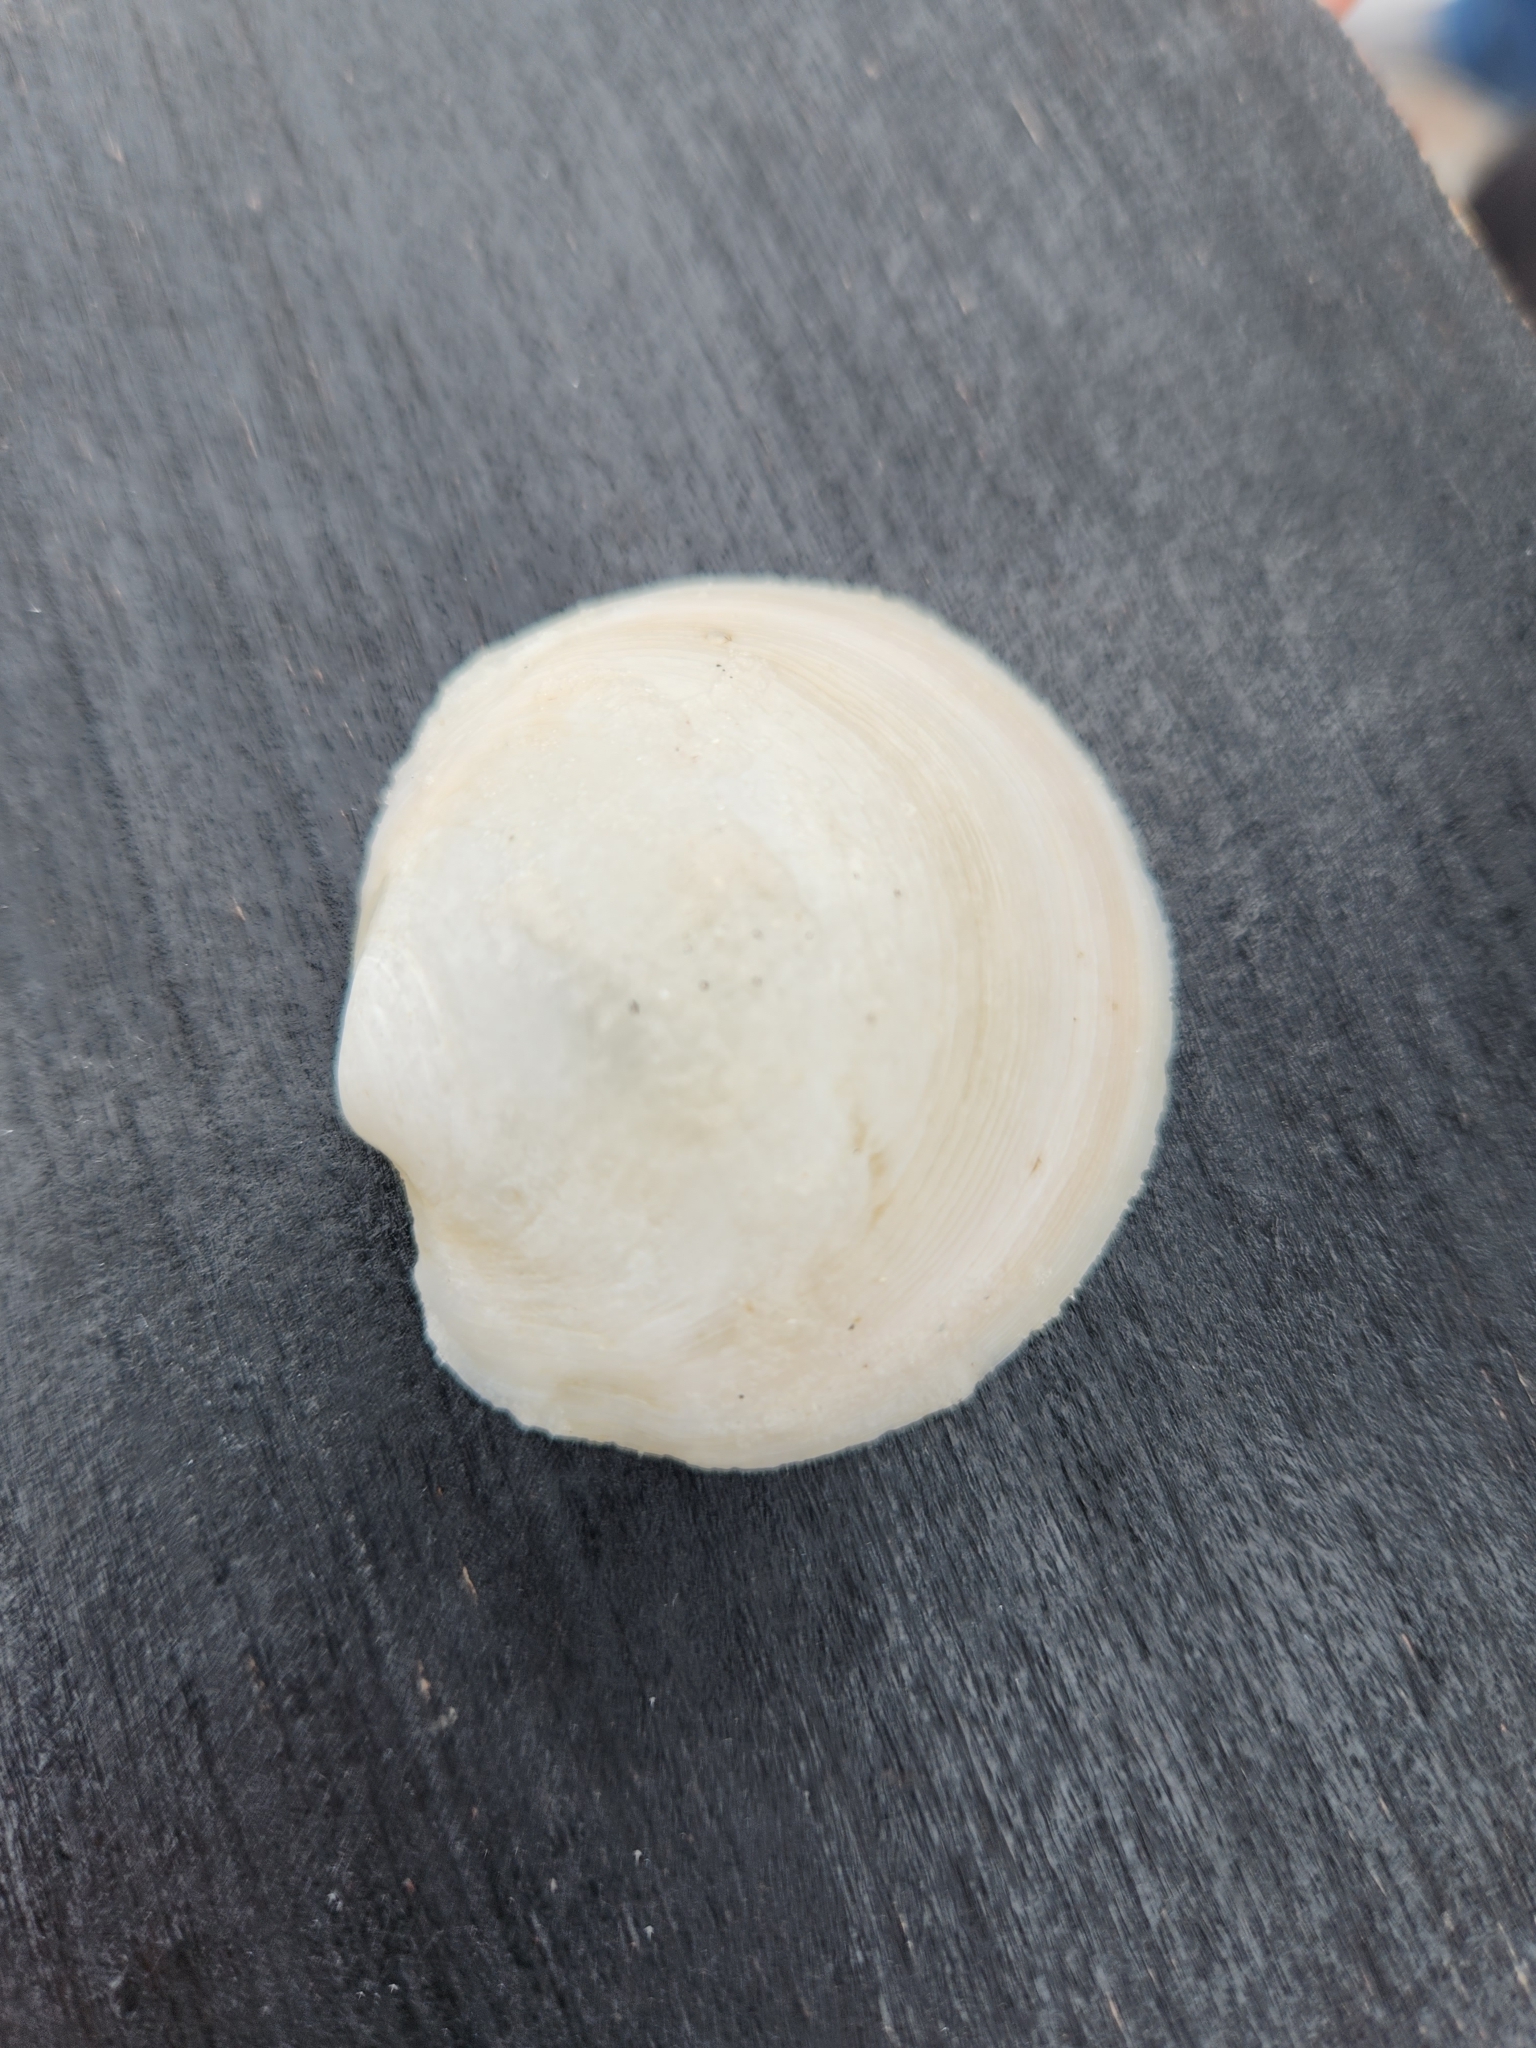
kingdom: Animalia
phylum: Mollusca
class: Bivalvia
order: Lucinida
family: Lucinidae
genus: Anodontia
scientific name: Anodontia alba
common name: Buttercup lucine
